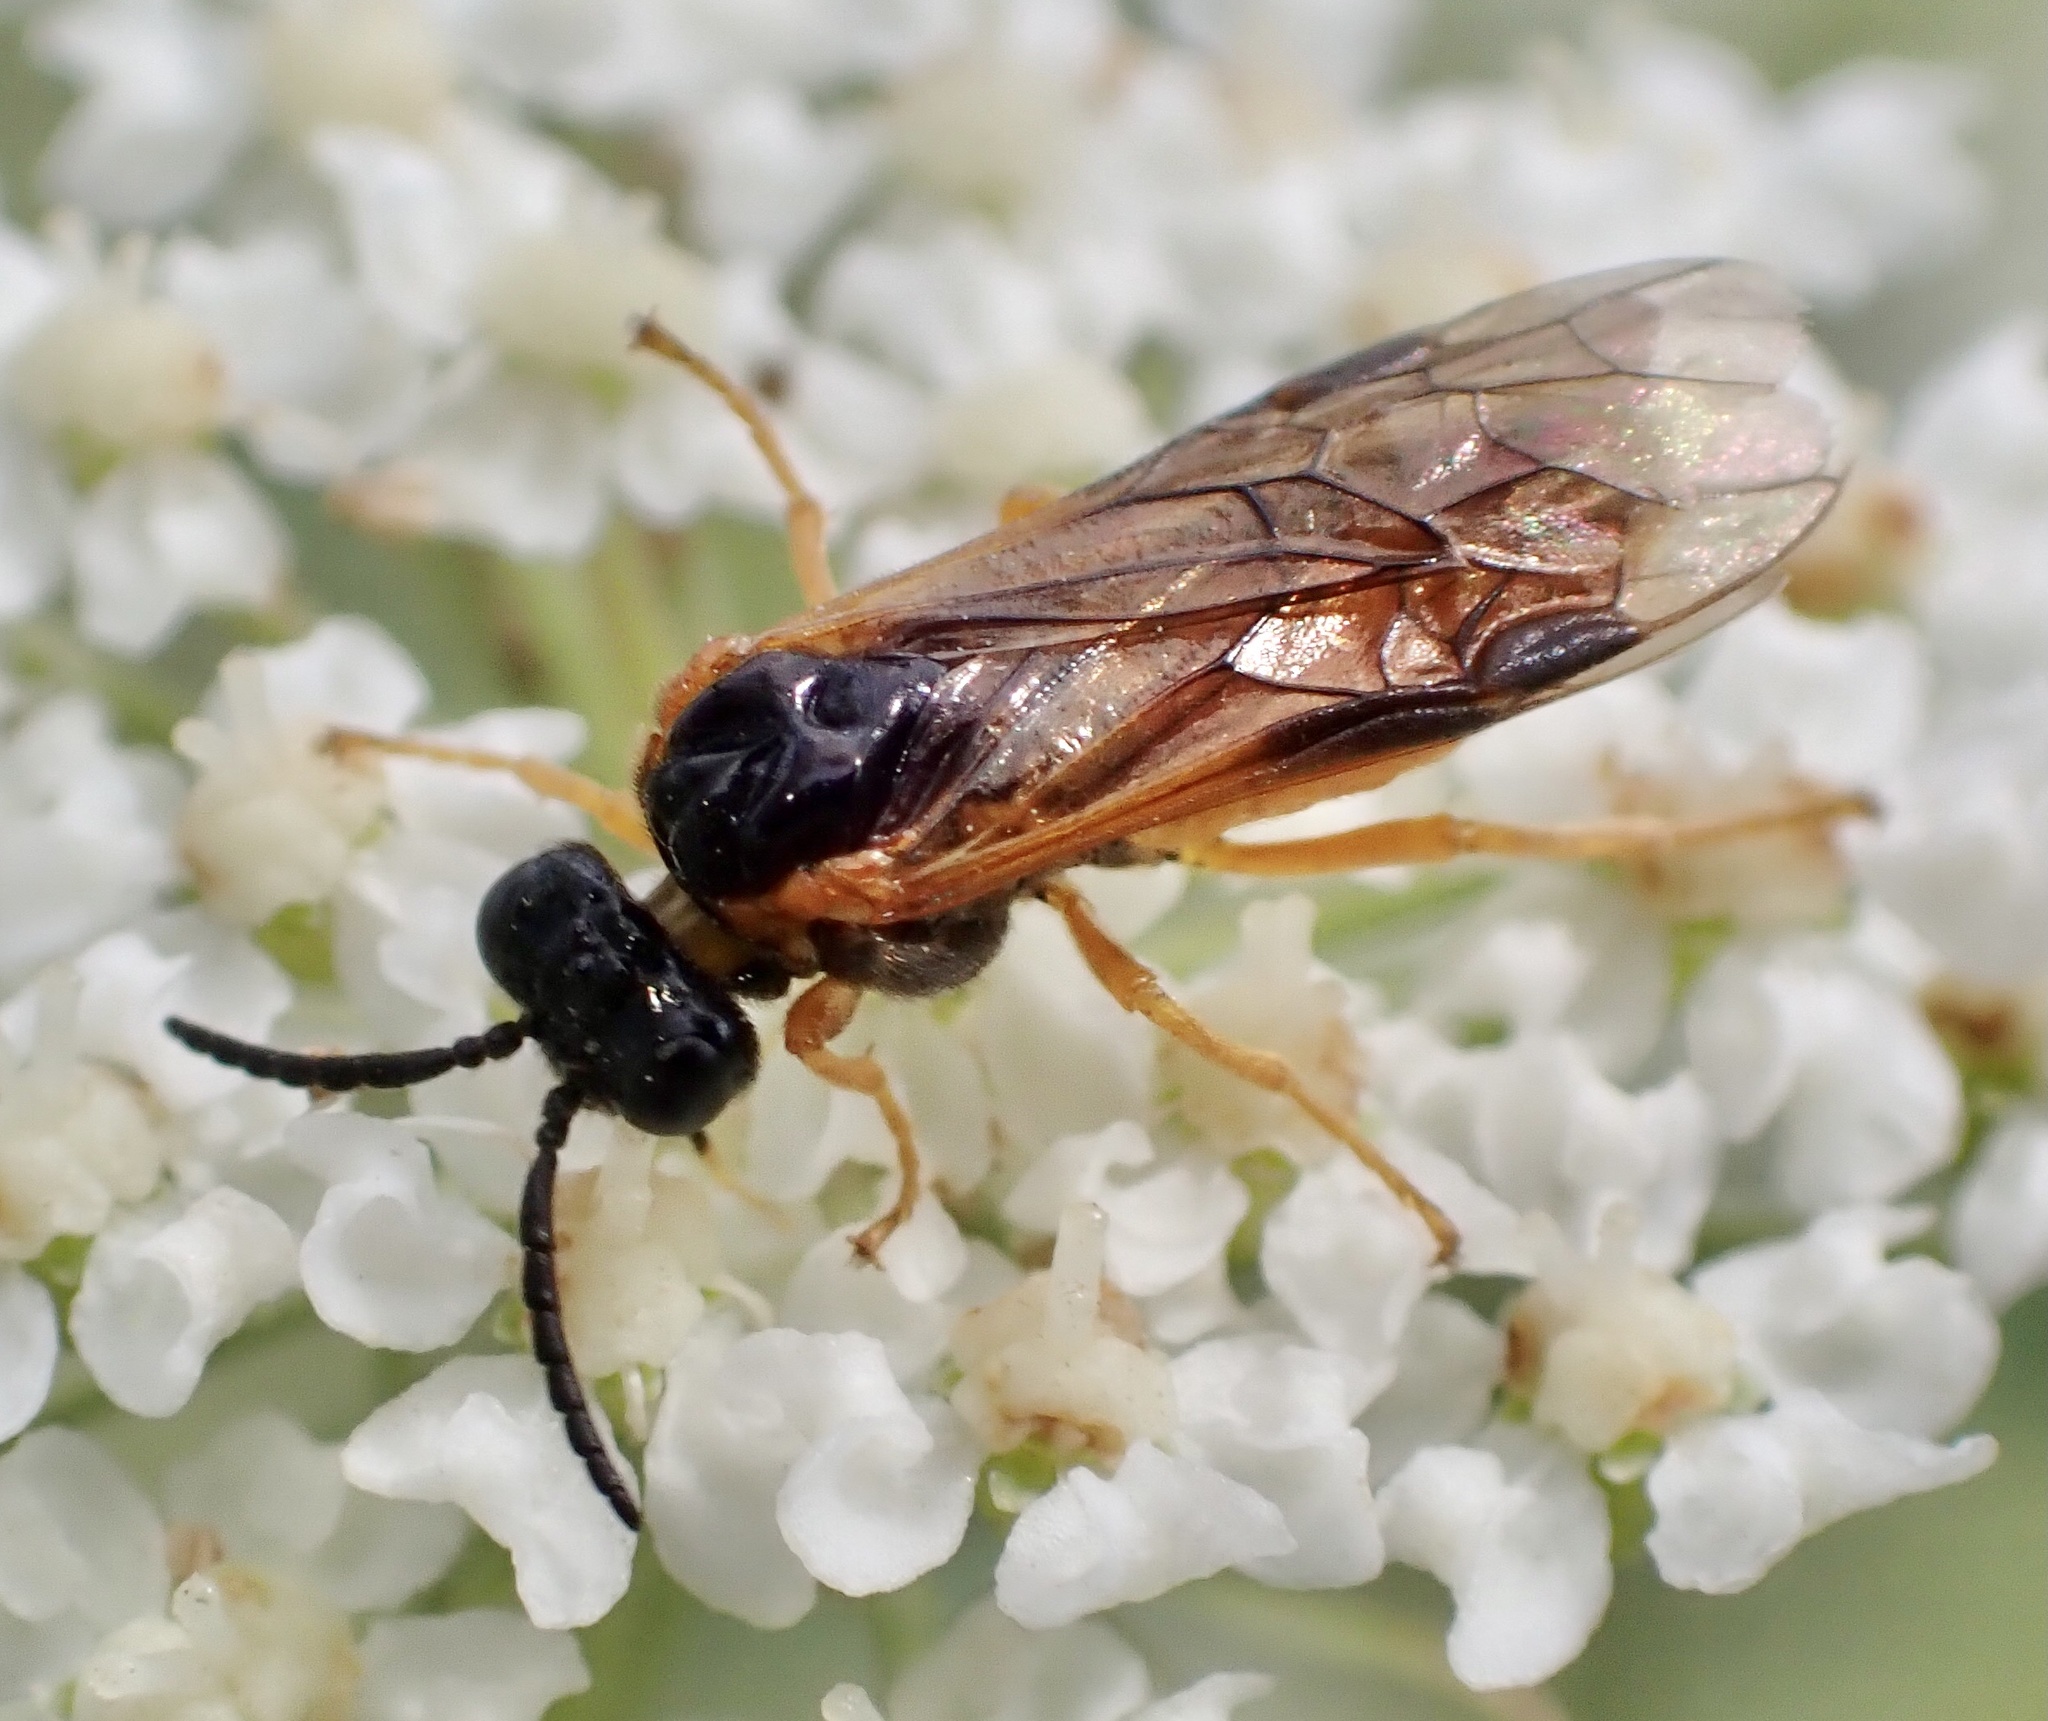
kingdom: Animalia
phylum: Arthropoda
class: Insecta
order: Hymenoptera
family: Tenthredinidae
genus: Selandria
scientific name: Selandria serva
